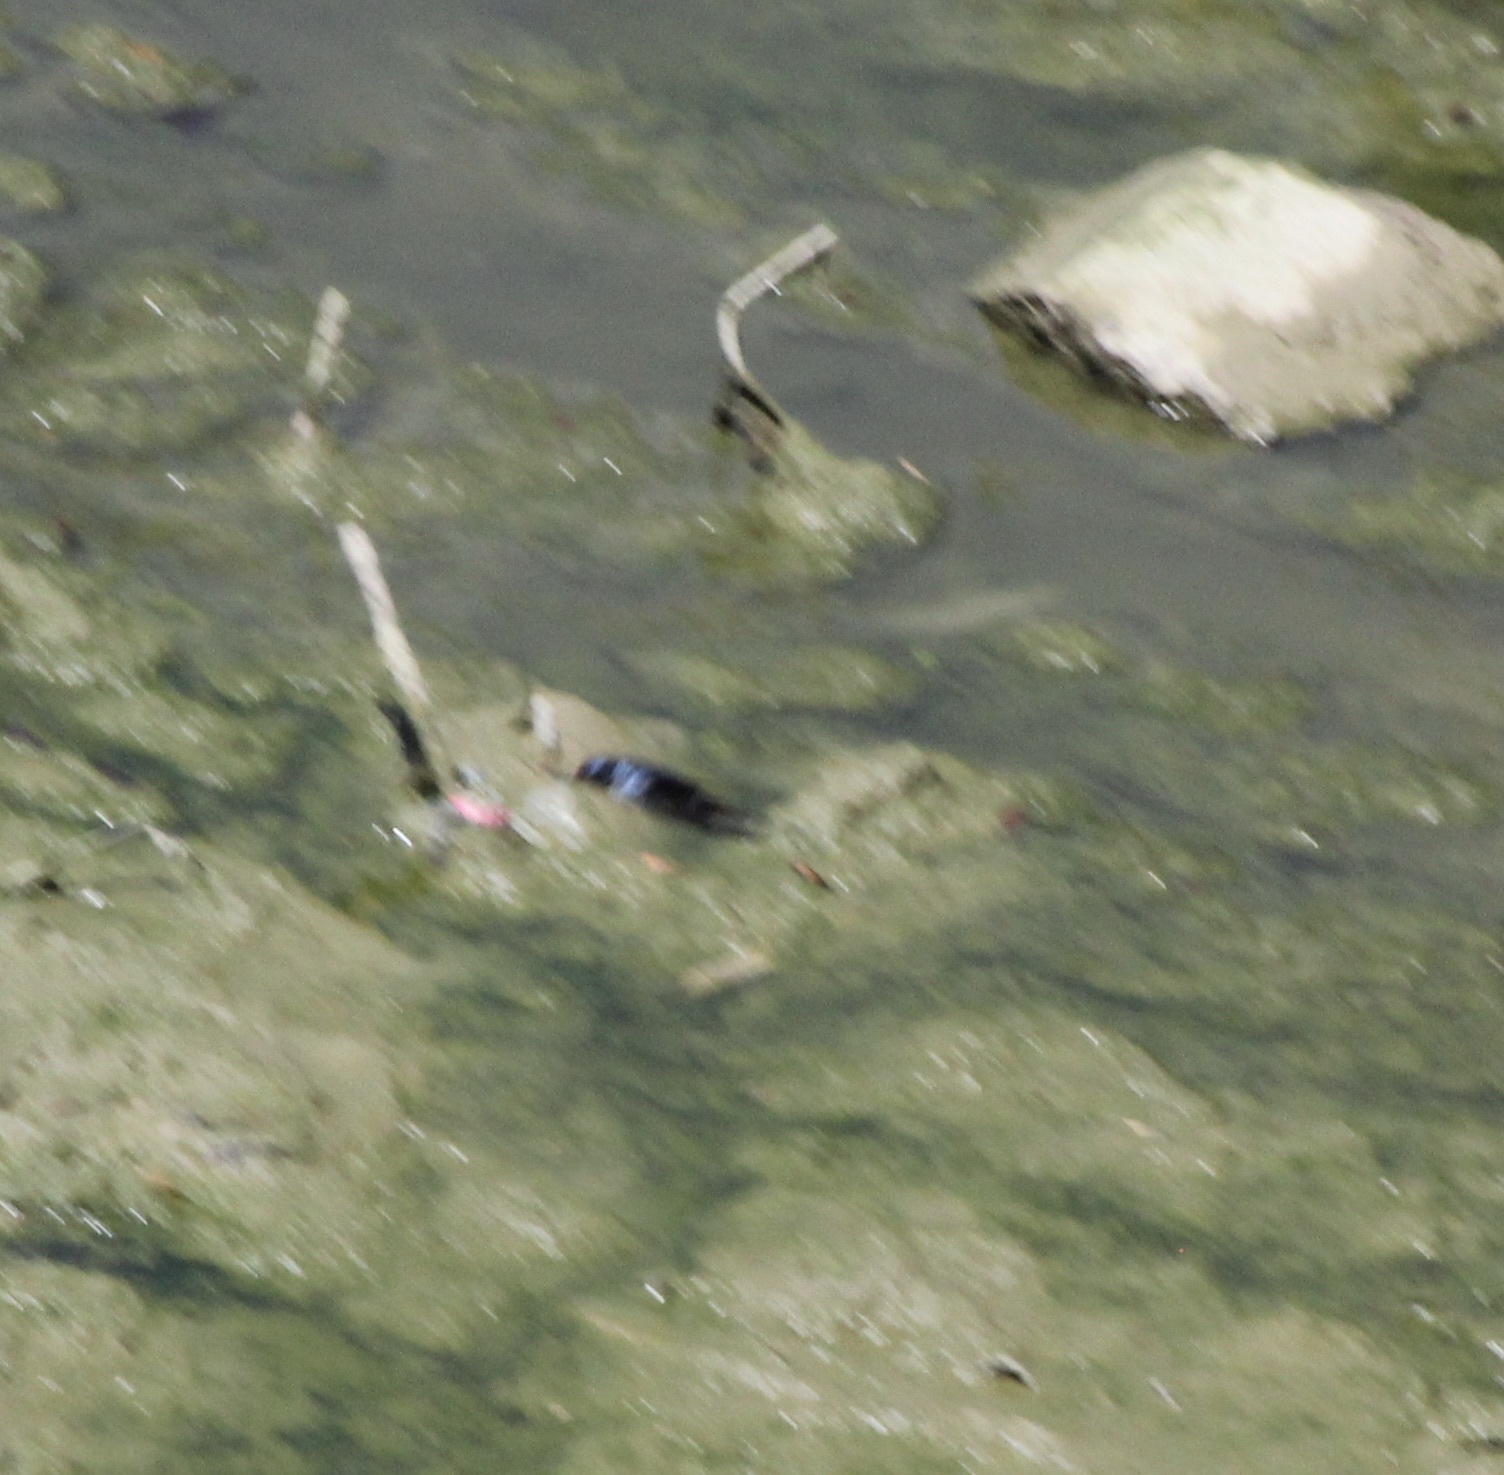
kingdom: Animalia
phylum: Chordata
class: Aves
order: Passeriformes
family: Hirundinidae
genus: Hirundo
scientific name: Hirundo rustica
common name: Barn swallow
